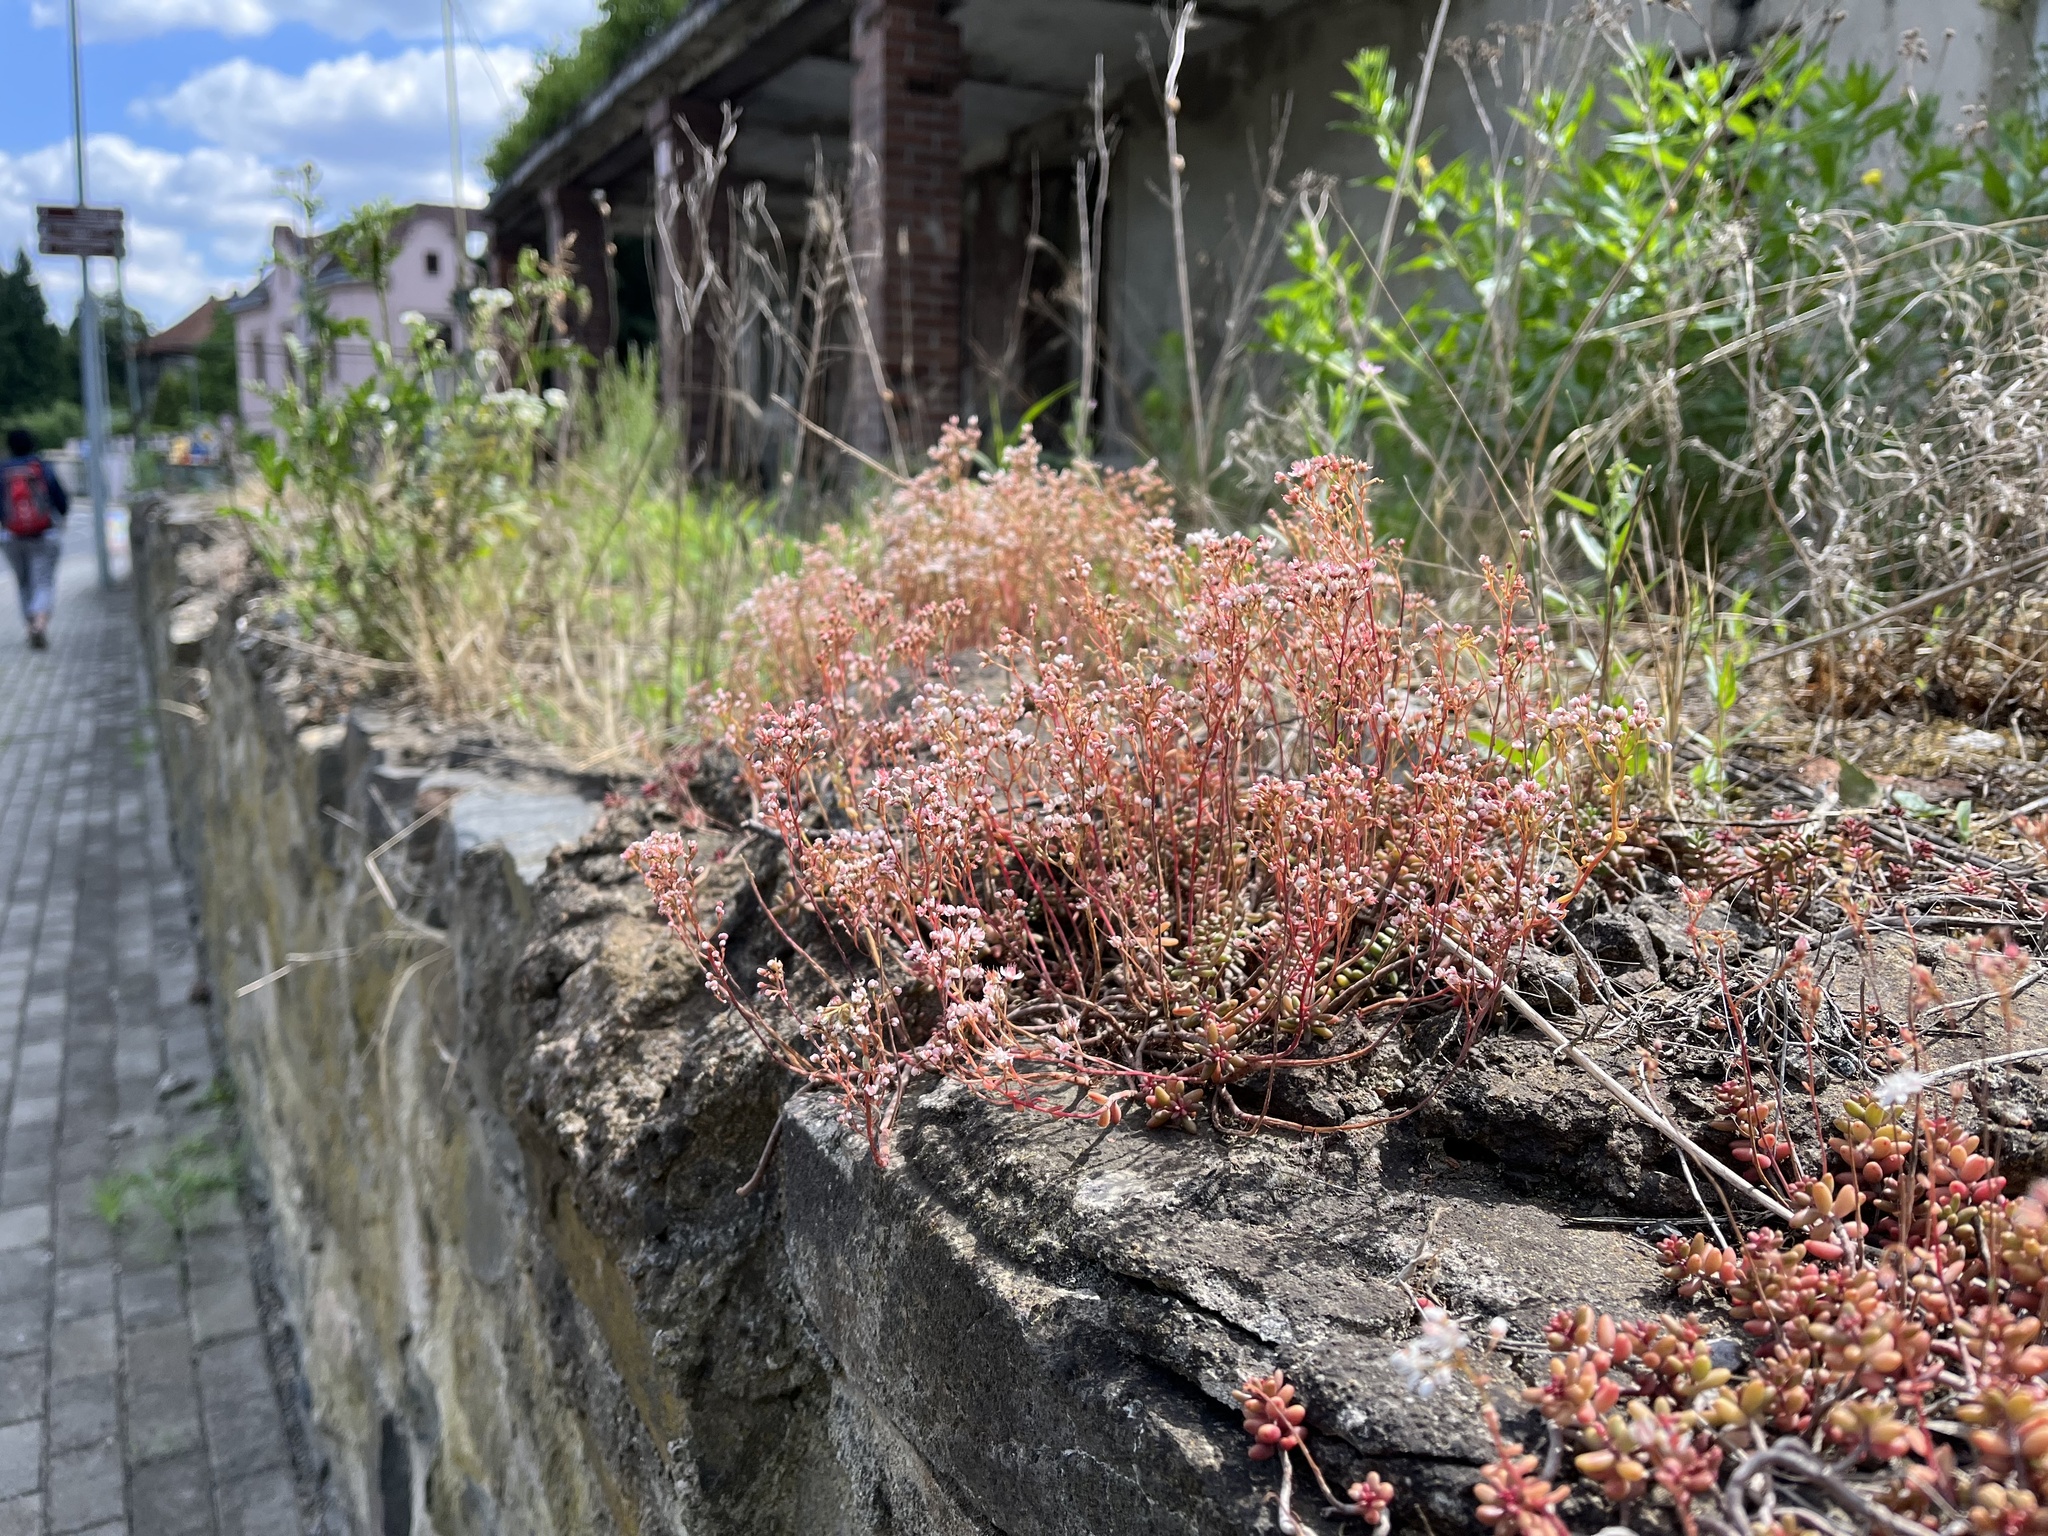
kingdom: Plantae
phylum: Tracheophyta
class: Magnoliopsida
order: Saxifragales
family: Crassulaceae
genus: Sedum
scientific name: Sedum album
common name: White stonecrop
